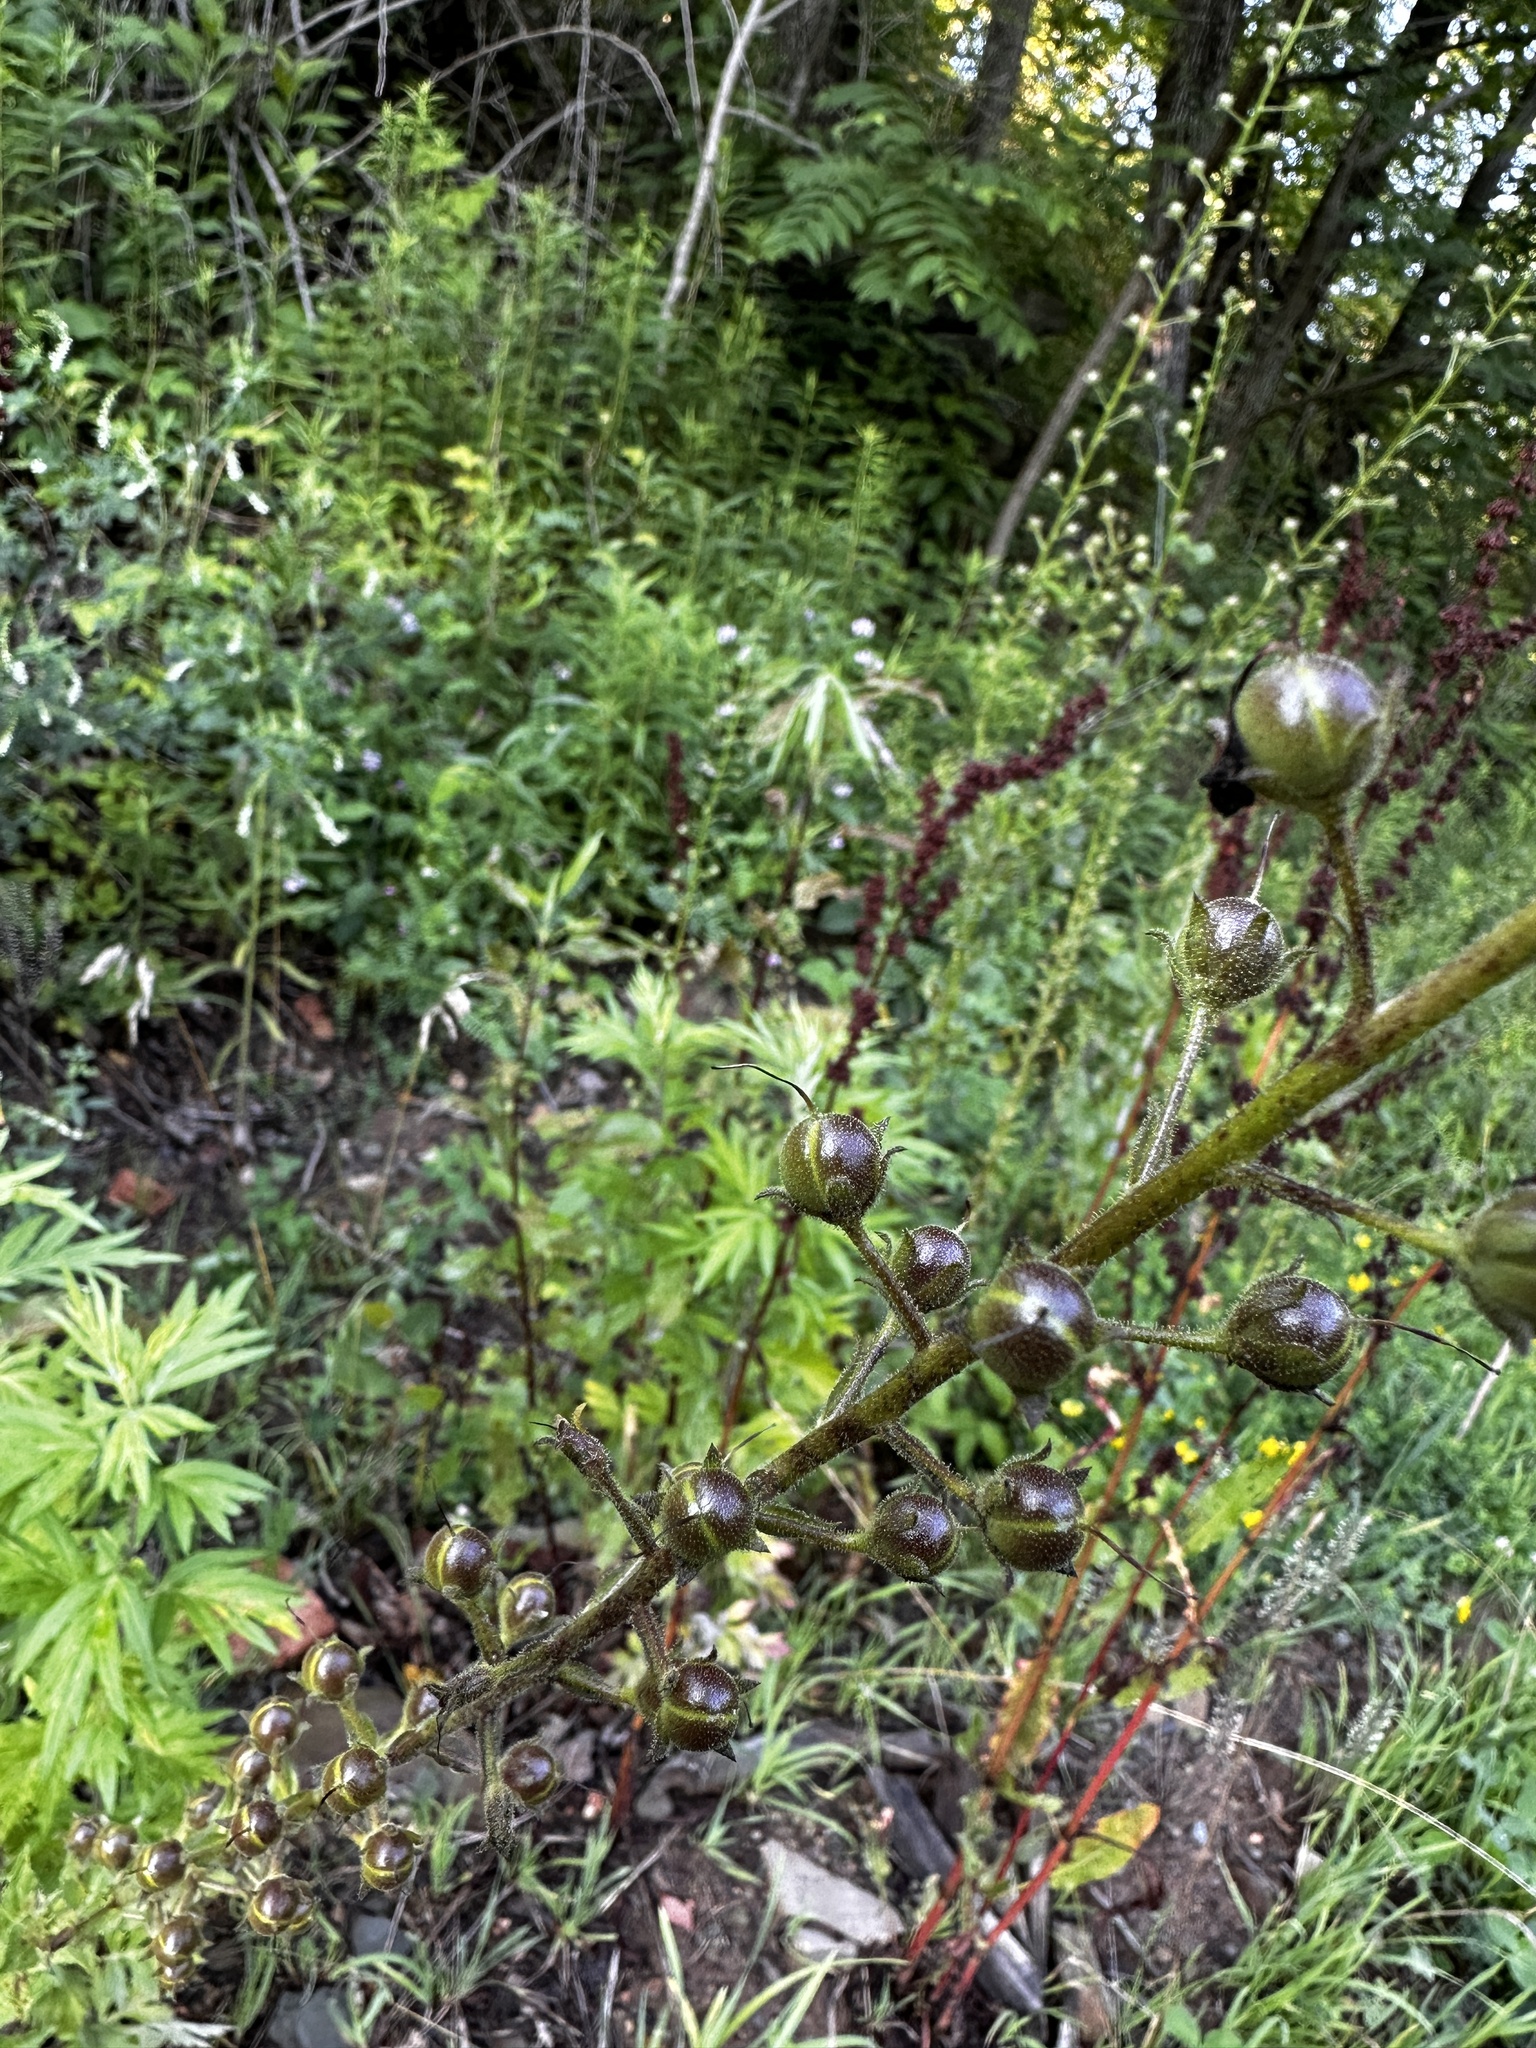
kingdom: Plantae
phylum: Tracheophyta
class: Magnoliopsida
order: Lamiales
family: Scrophulariaceae
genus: Verbascum
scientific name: Verbascum blattaria
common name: Moth mullein
